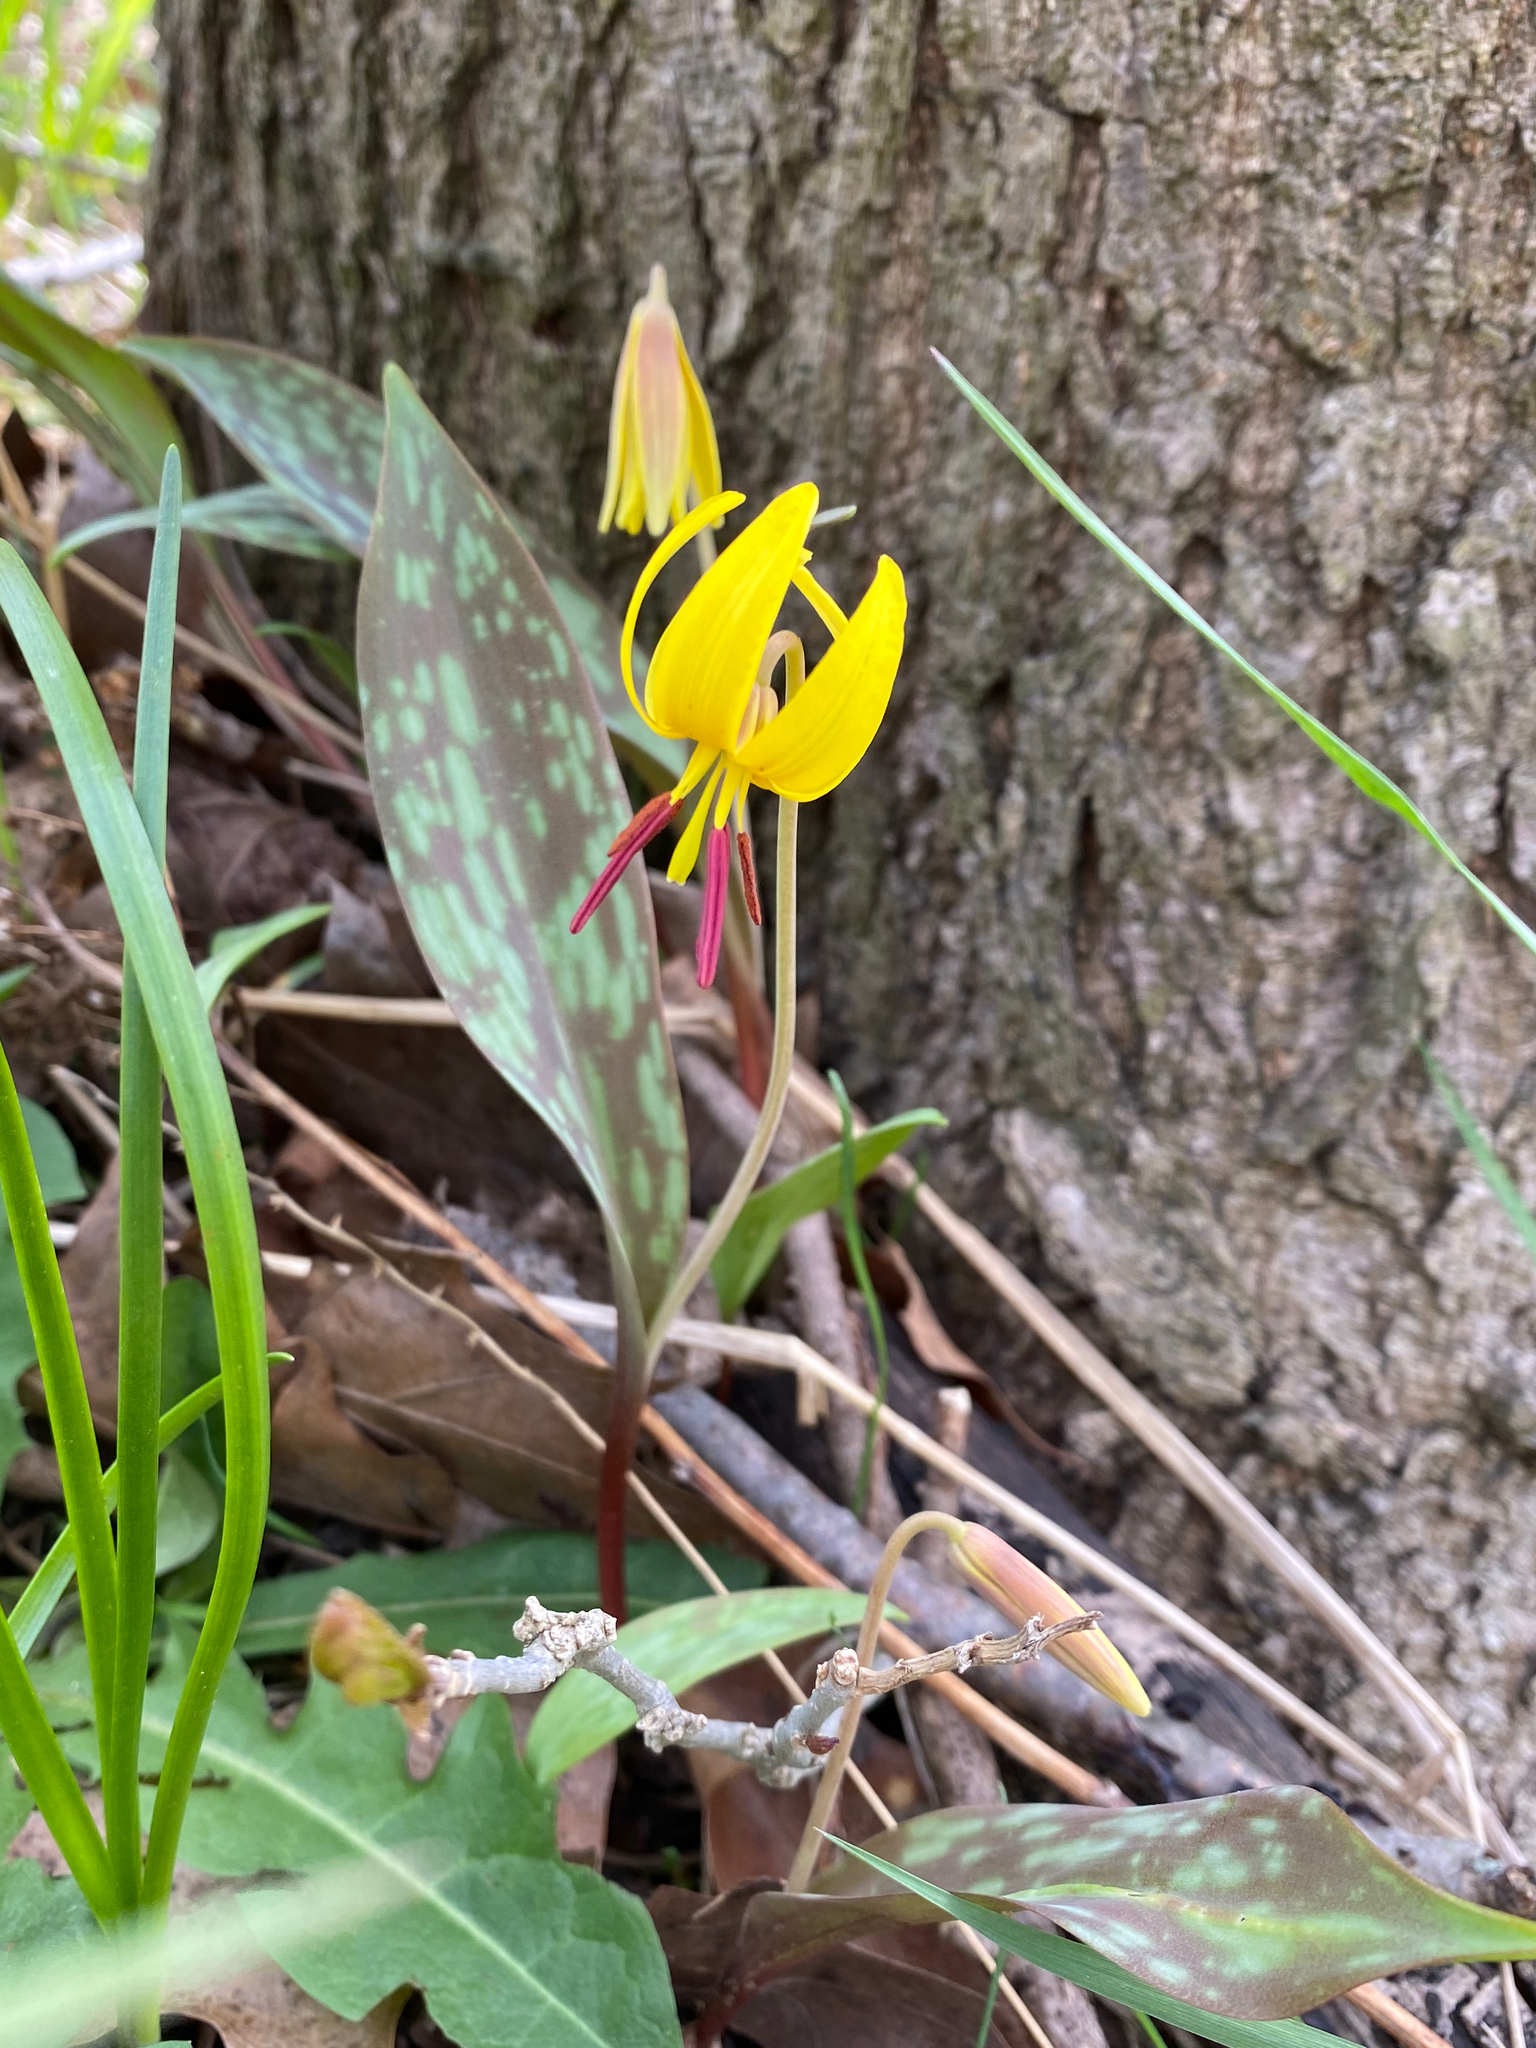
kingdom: Plantae
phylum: Tracheophyta
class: Liliopsida
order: Liliales
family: Liliaceae
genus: Erythronium
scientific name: Erythronium americanum
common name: Yellow adder's-tongue
